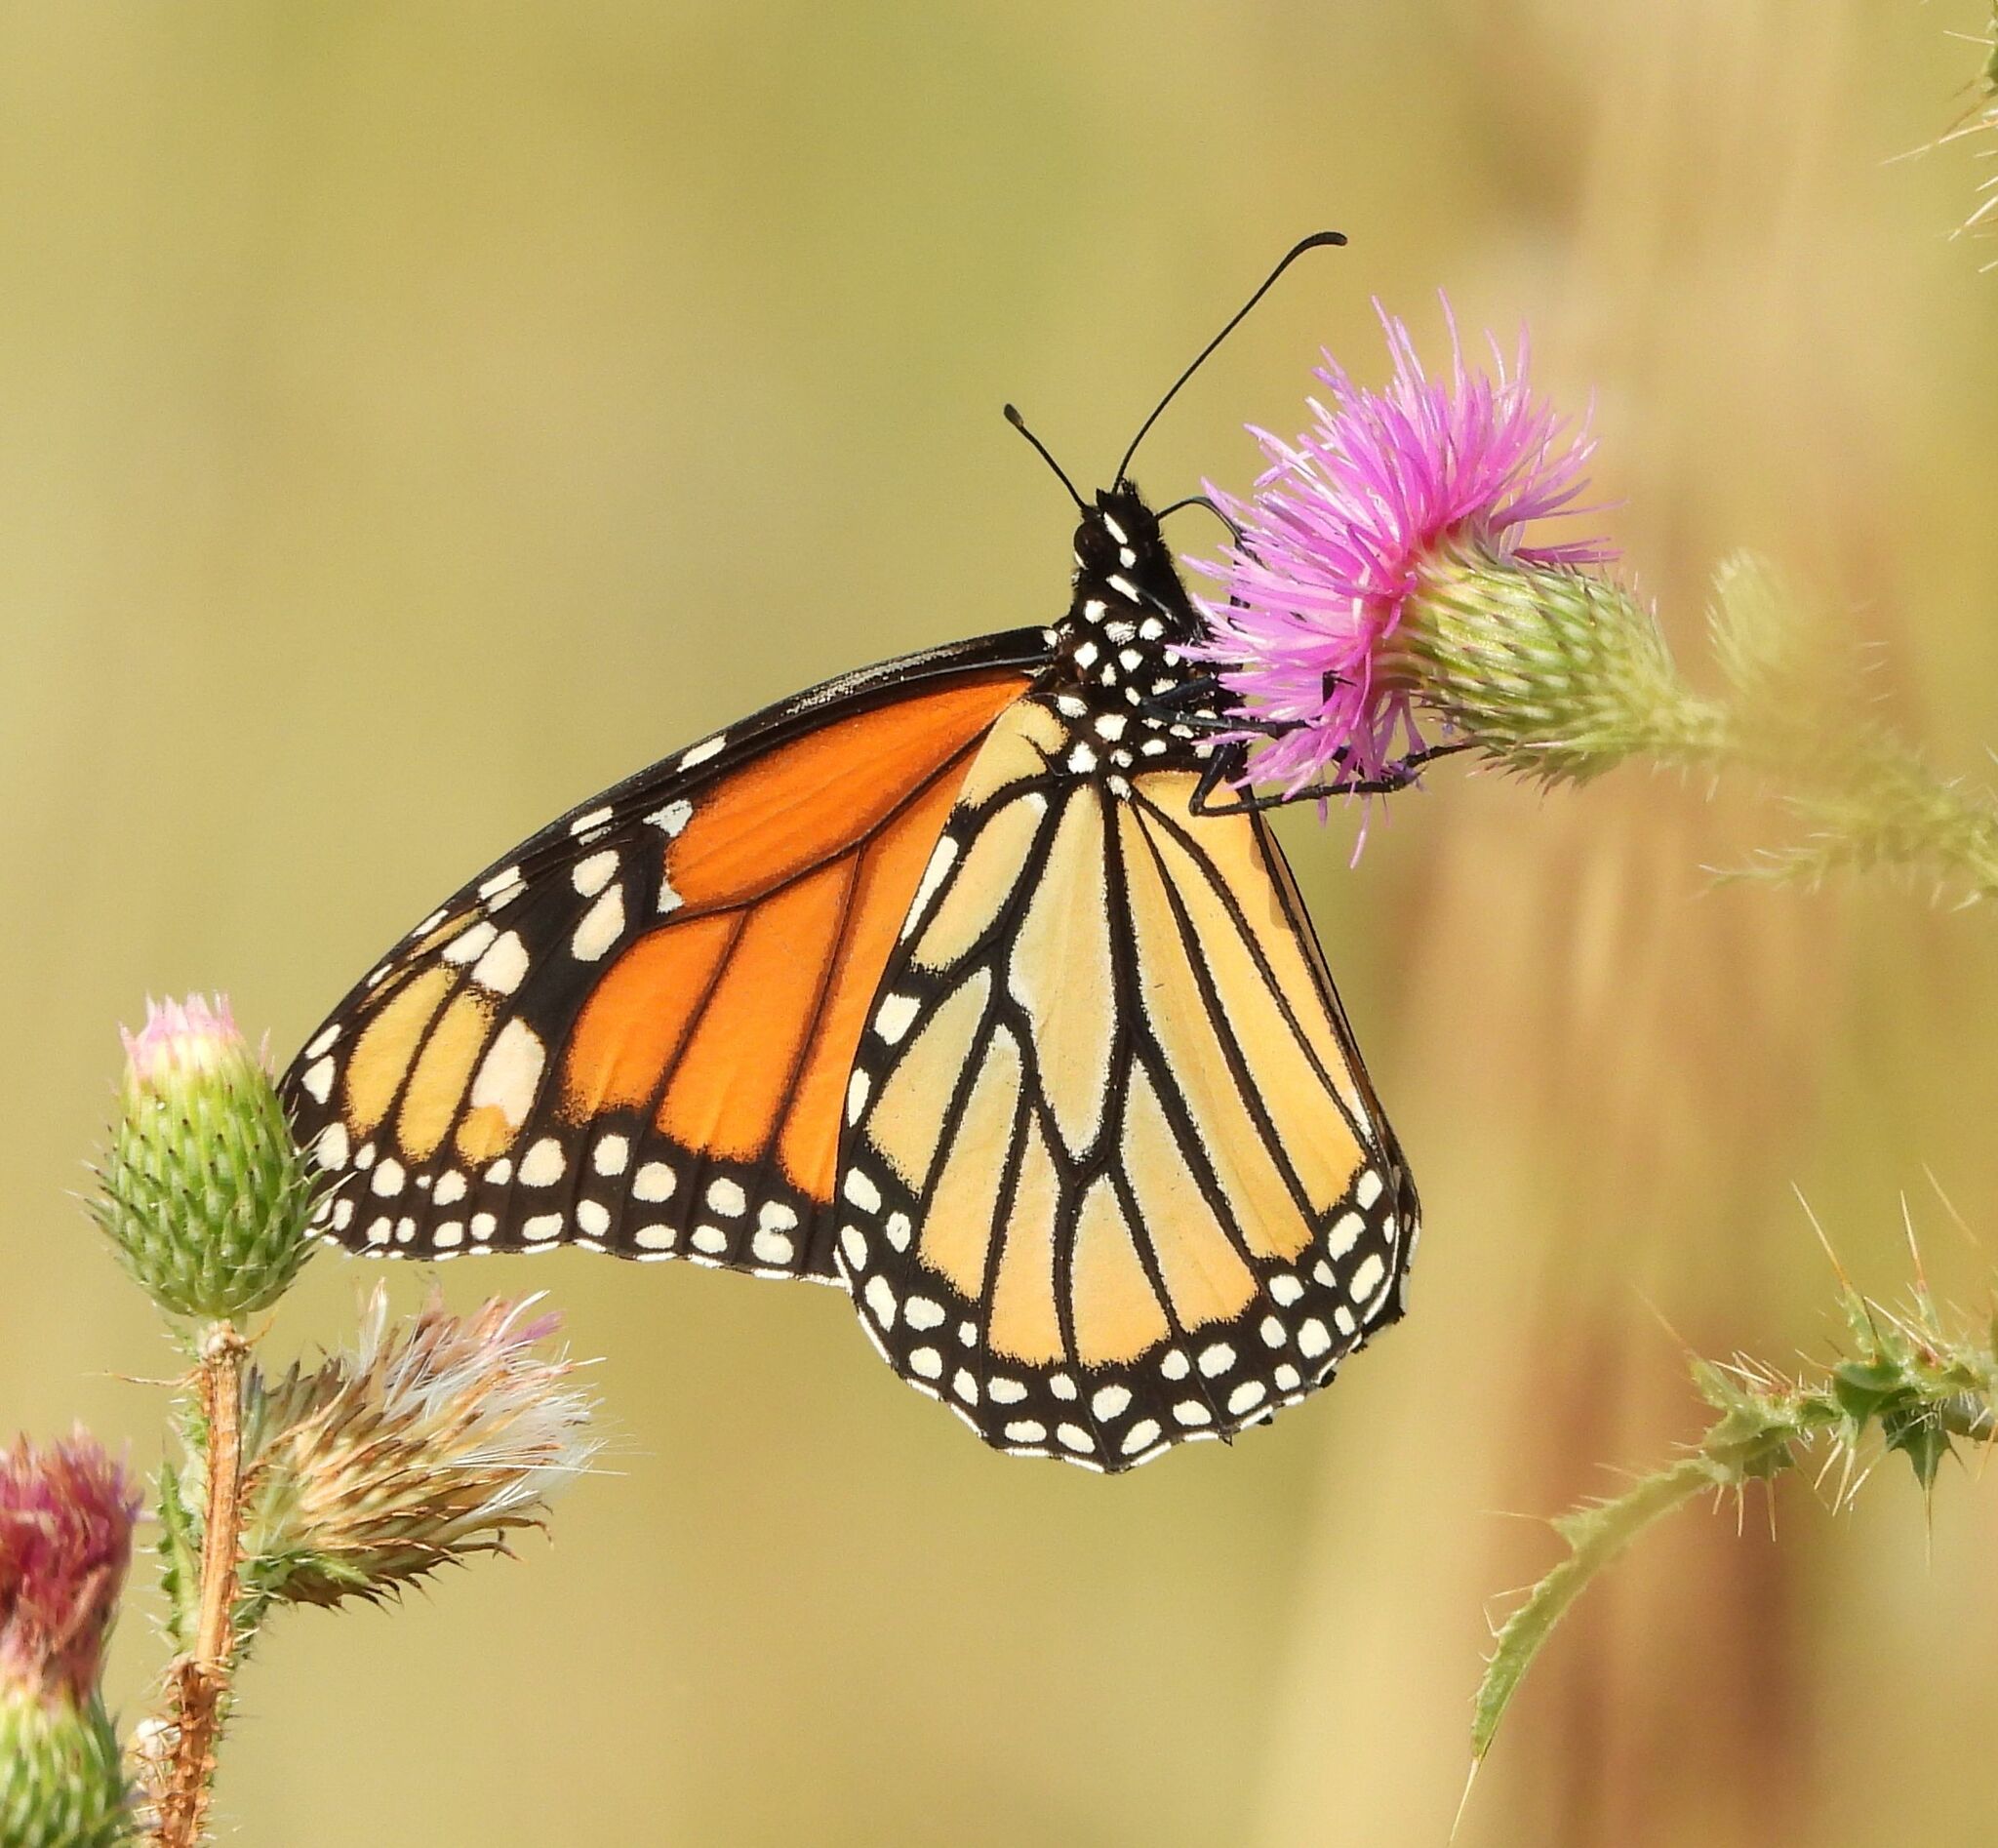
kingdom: Animalia
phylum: Arthropoda
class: Insecta
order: Lepidoptera
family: Nymphalidae
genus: Danaus
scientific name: Danaus plexippus
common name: Monarch
